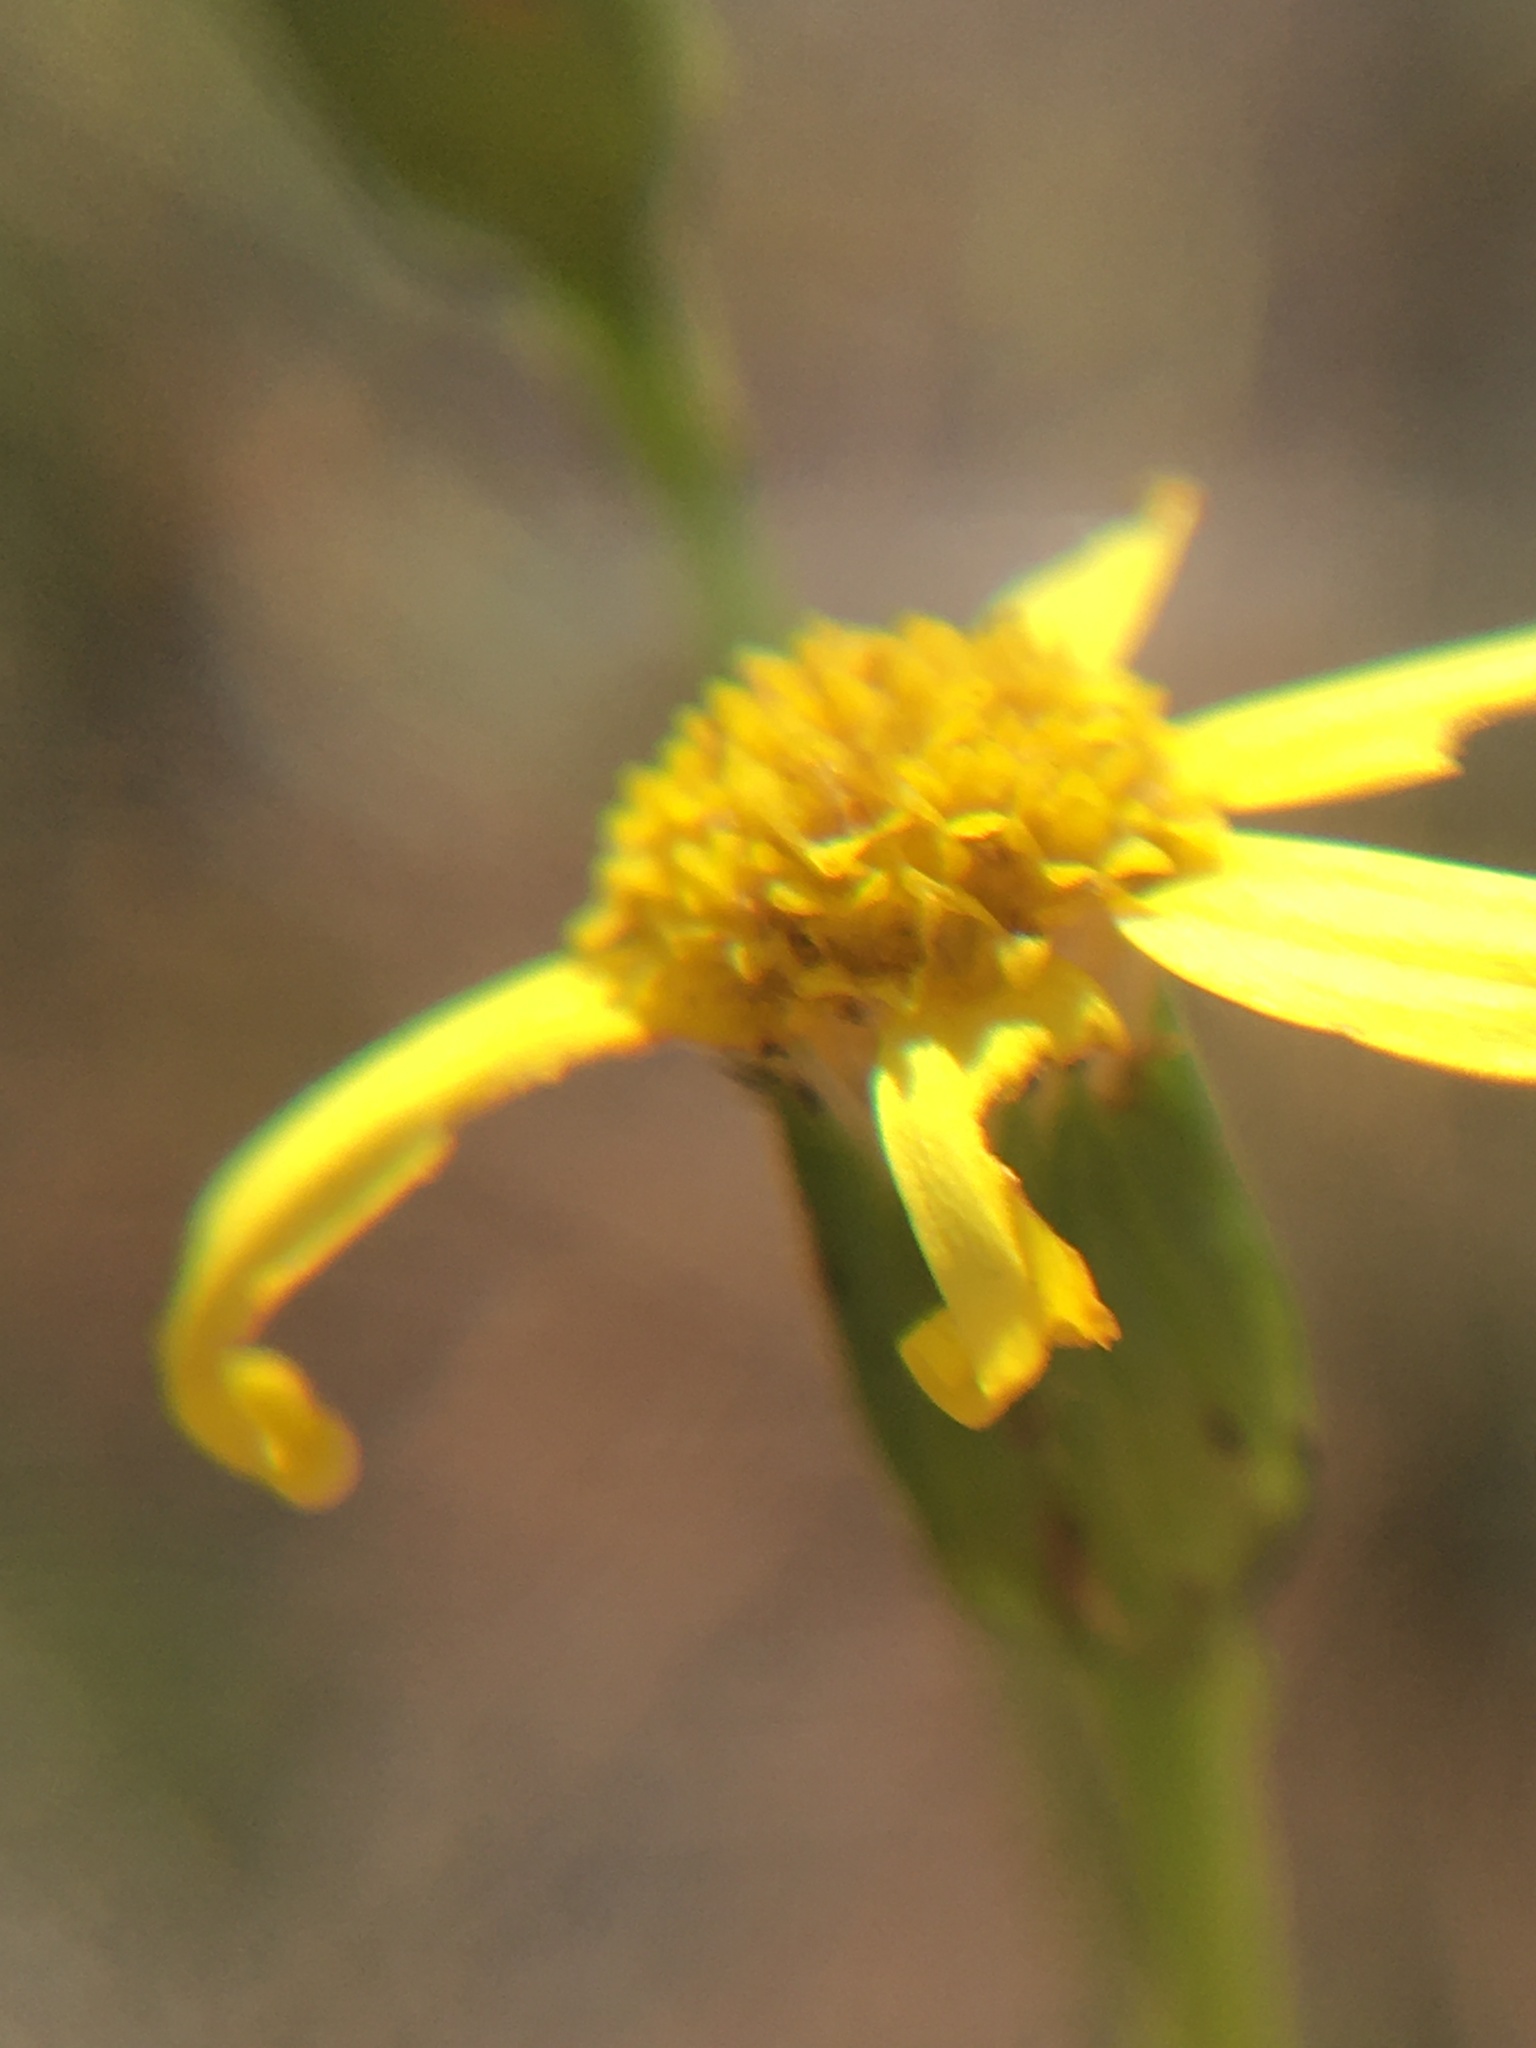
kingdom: Plantae
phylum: Tracheophyta
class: Magnoliopsida
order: Asterales
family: Asteraceae
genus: Senecio
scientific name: Senecio burchellii
